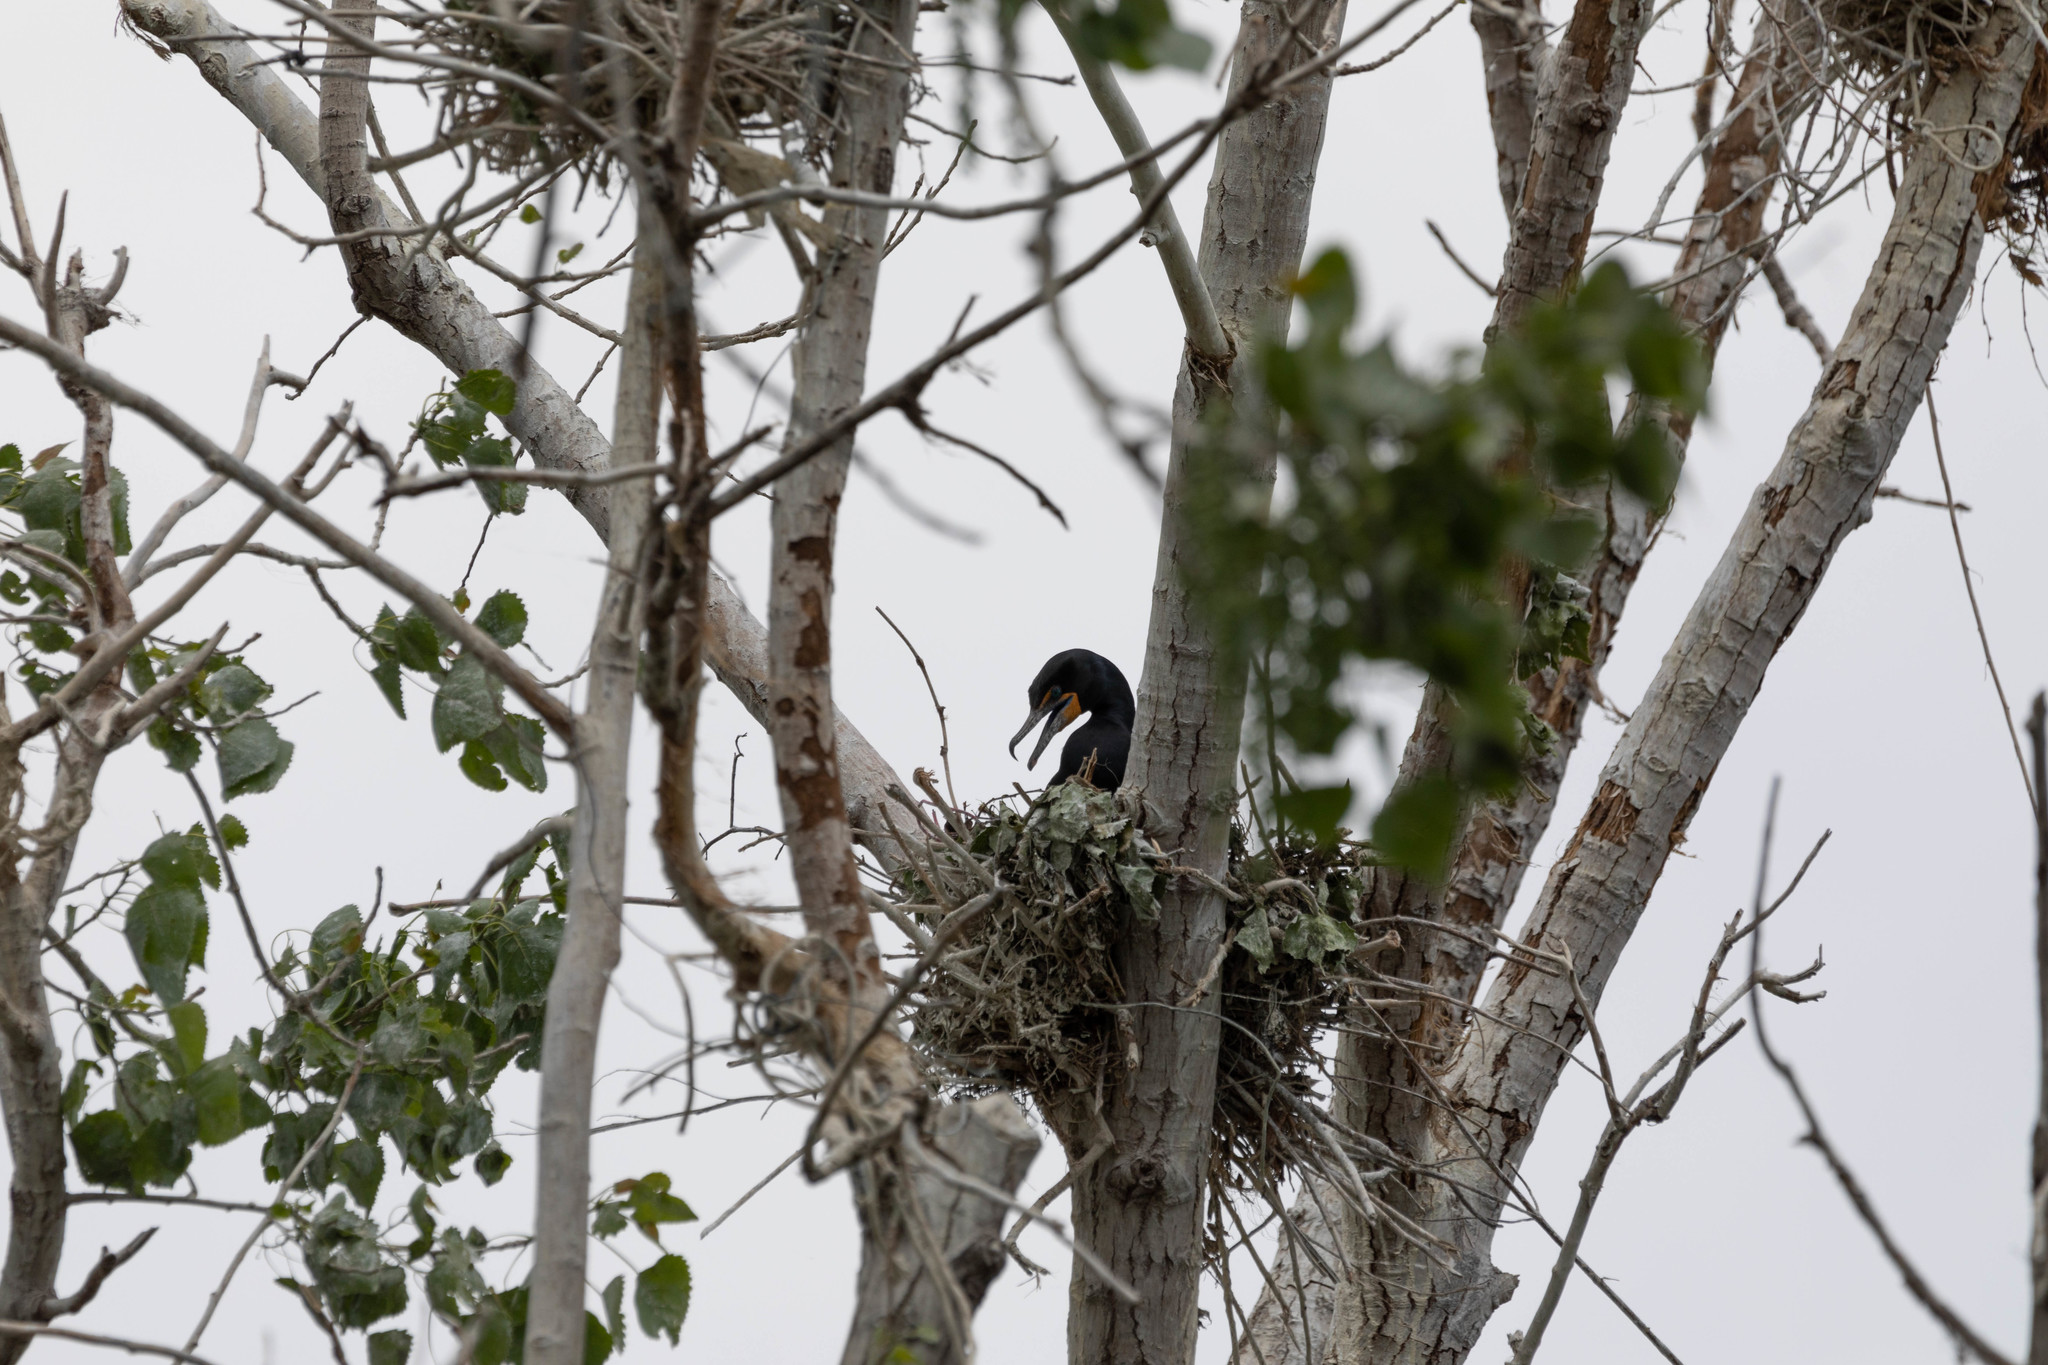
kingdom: Animalia
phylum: Chordata
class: Aves
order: Suliformes
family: Phalacrocoracidae
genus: Phalacrocorax
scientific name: Phalacrocorax auritus
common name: Double-crested cormorant
